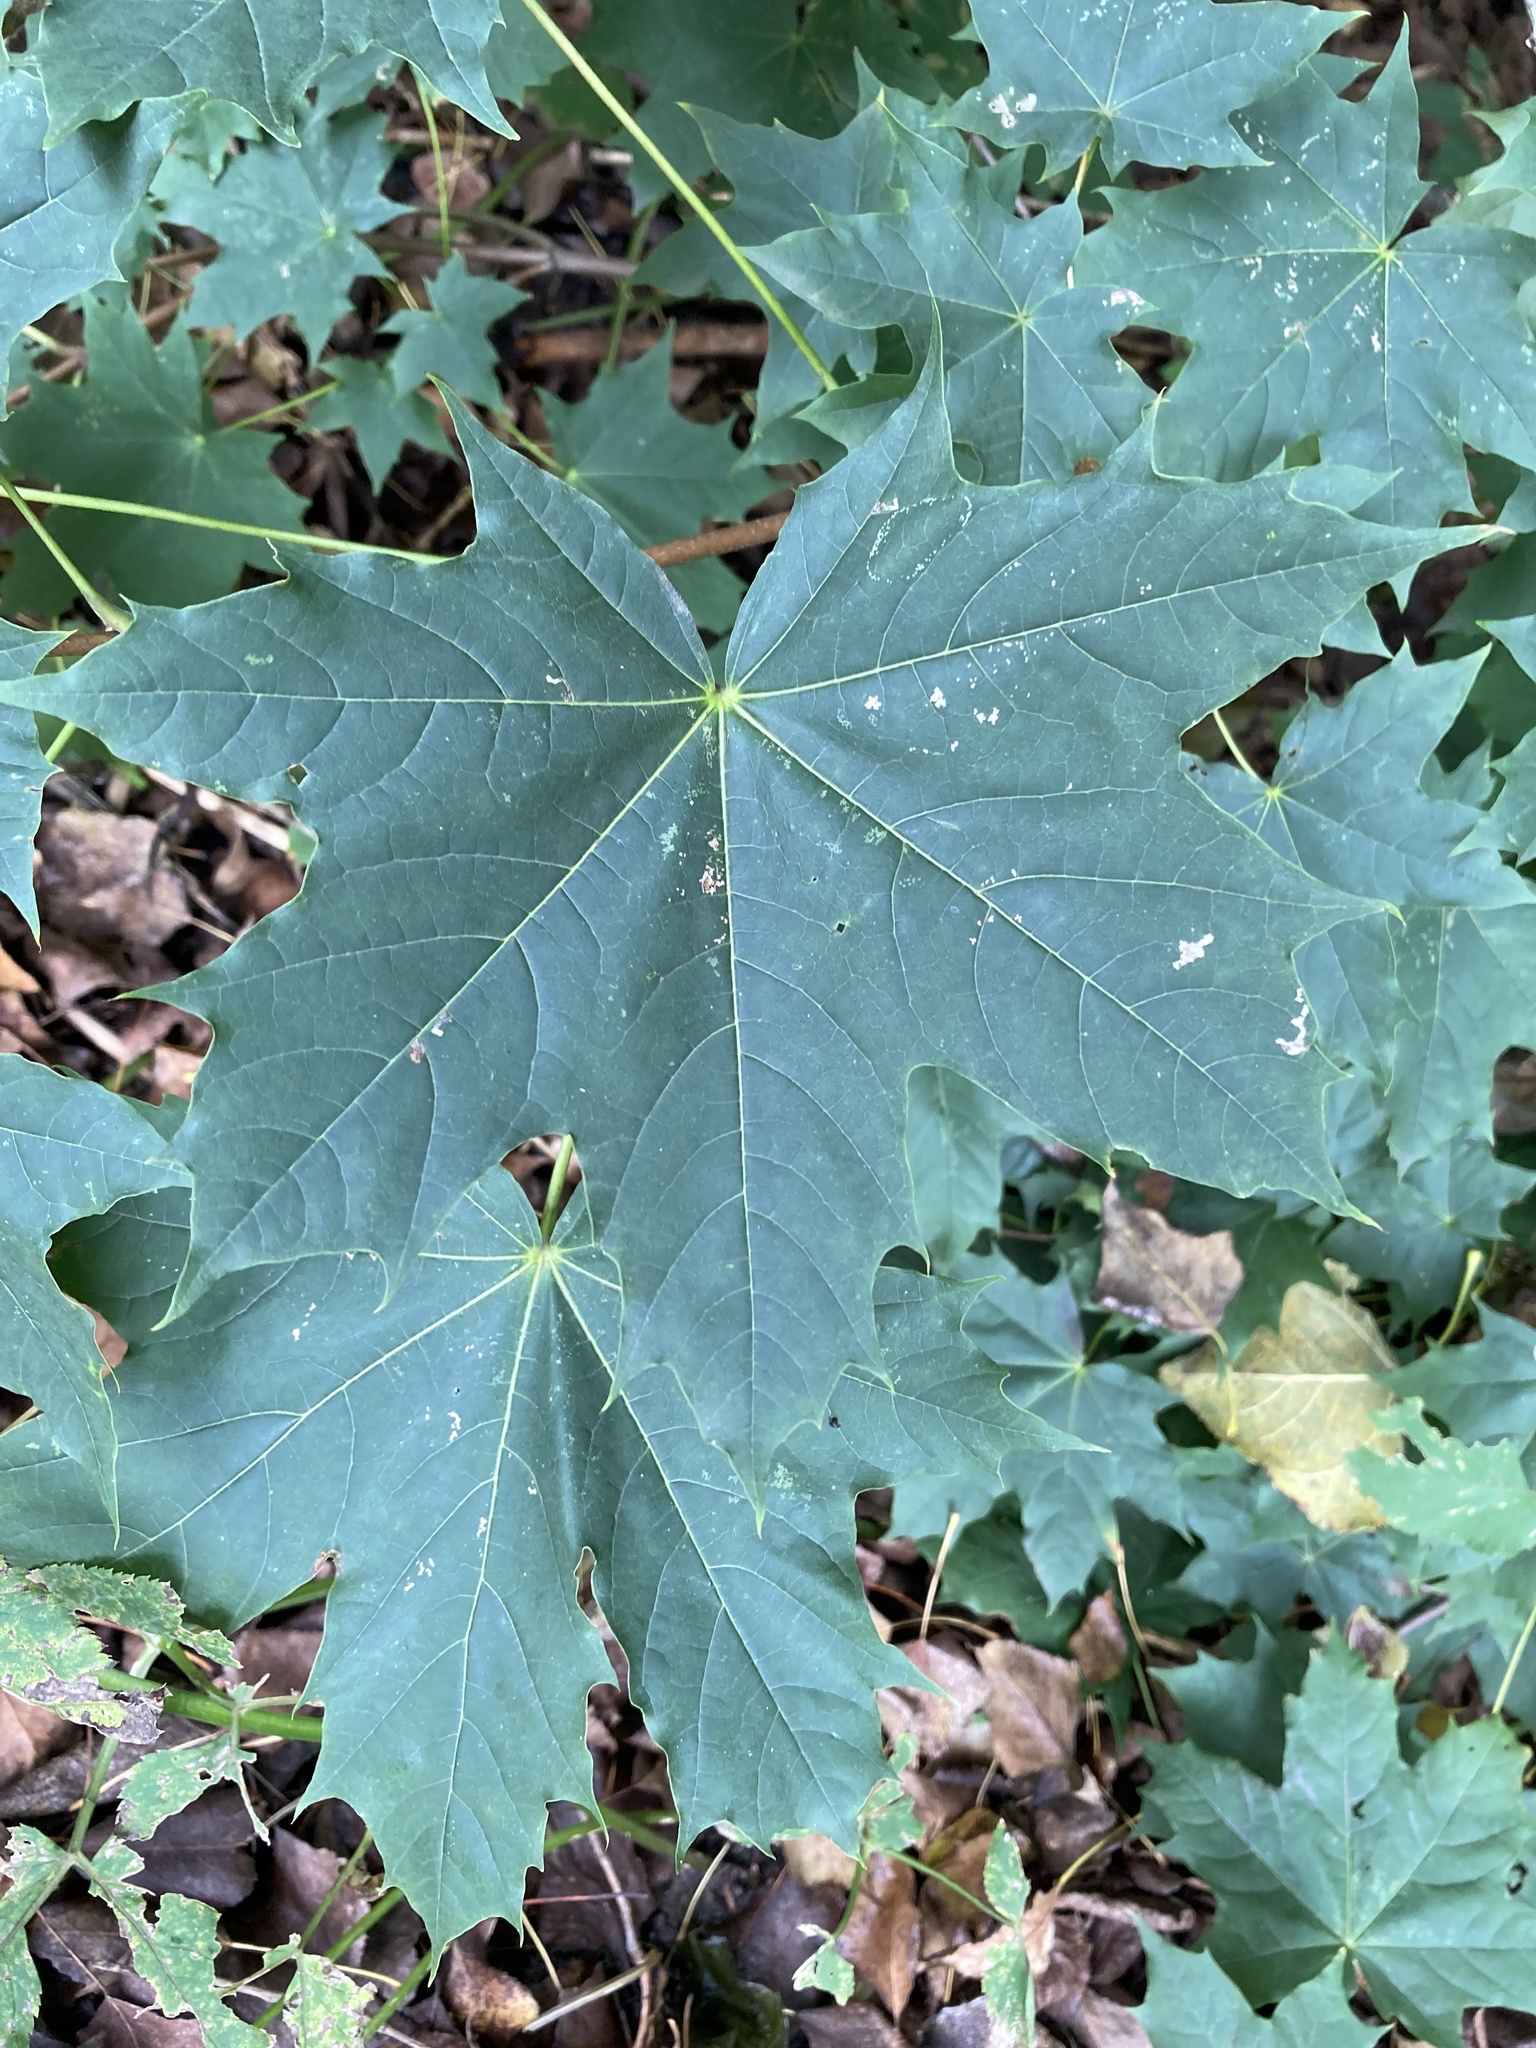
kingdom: Plantae
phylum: Tracheophyta
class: Magnoliopsida
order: Sapindales
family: Sapindaceae
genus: Acer
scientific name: Acer platanoides
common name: Norway maple
